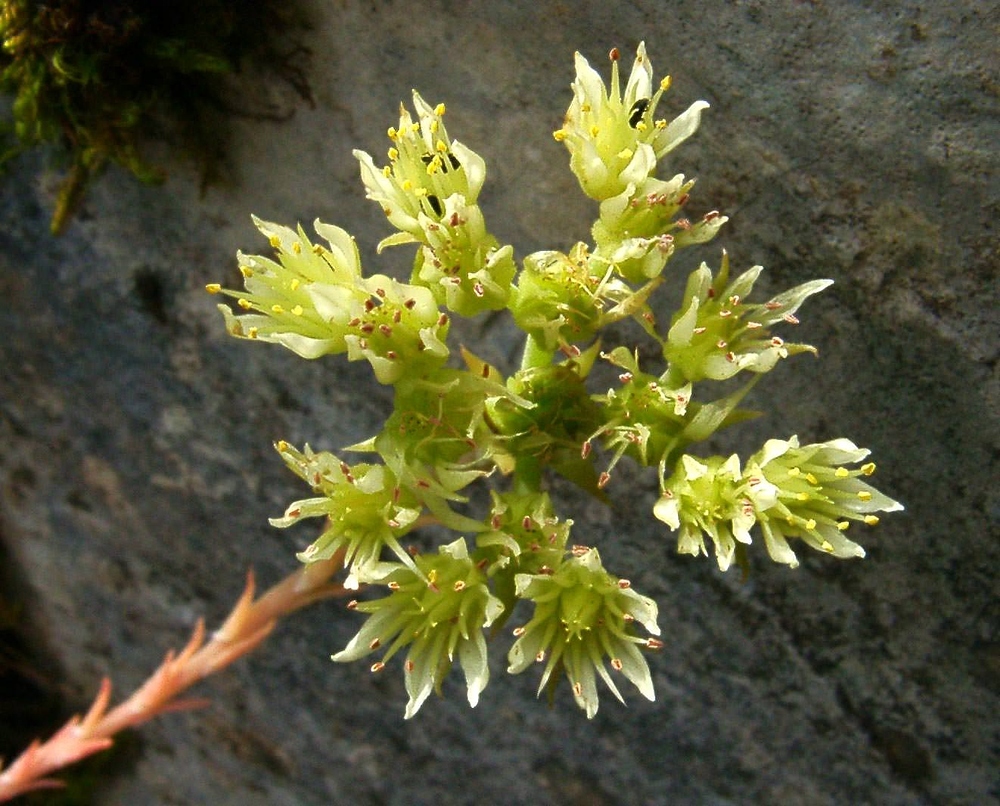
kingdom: Plantae
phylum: Tracheophyta
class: Magnoliopsida
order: Saxifragales
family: Crassulaceae
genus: Petrosedum
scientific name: Petrosedum ochroleucum
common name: European stonecrop
